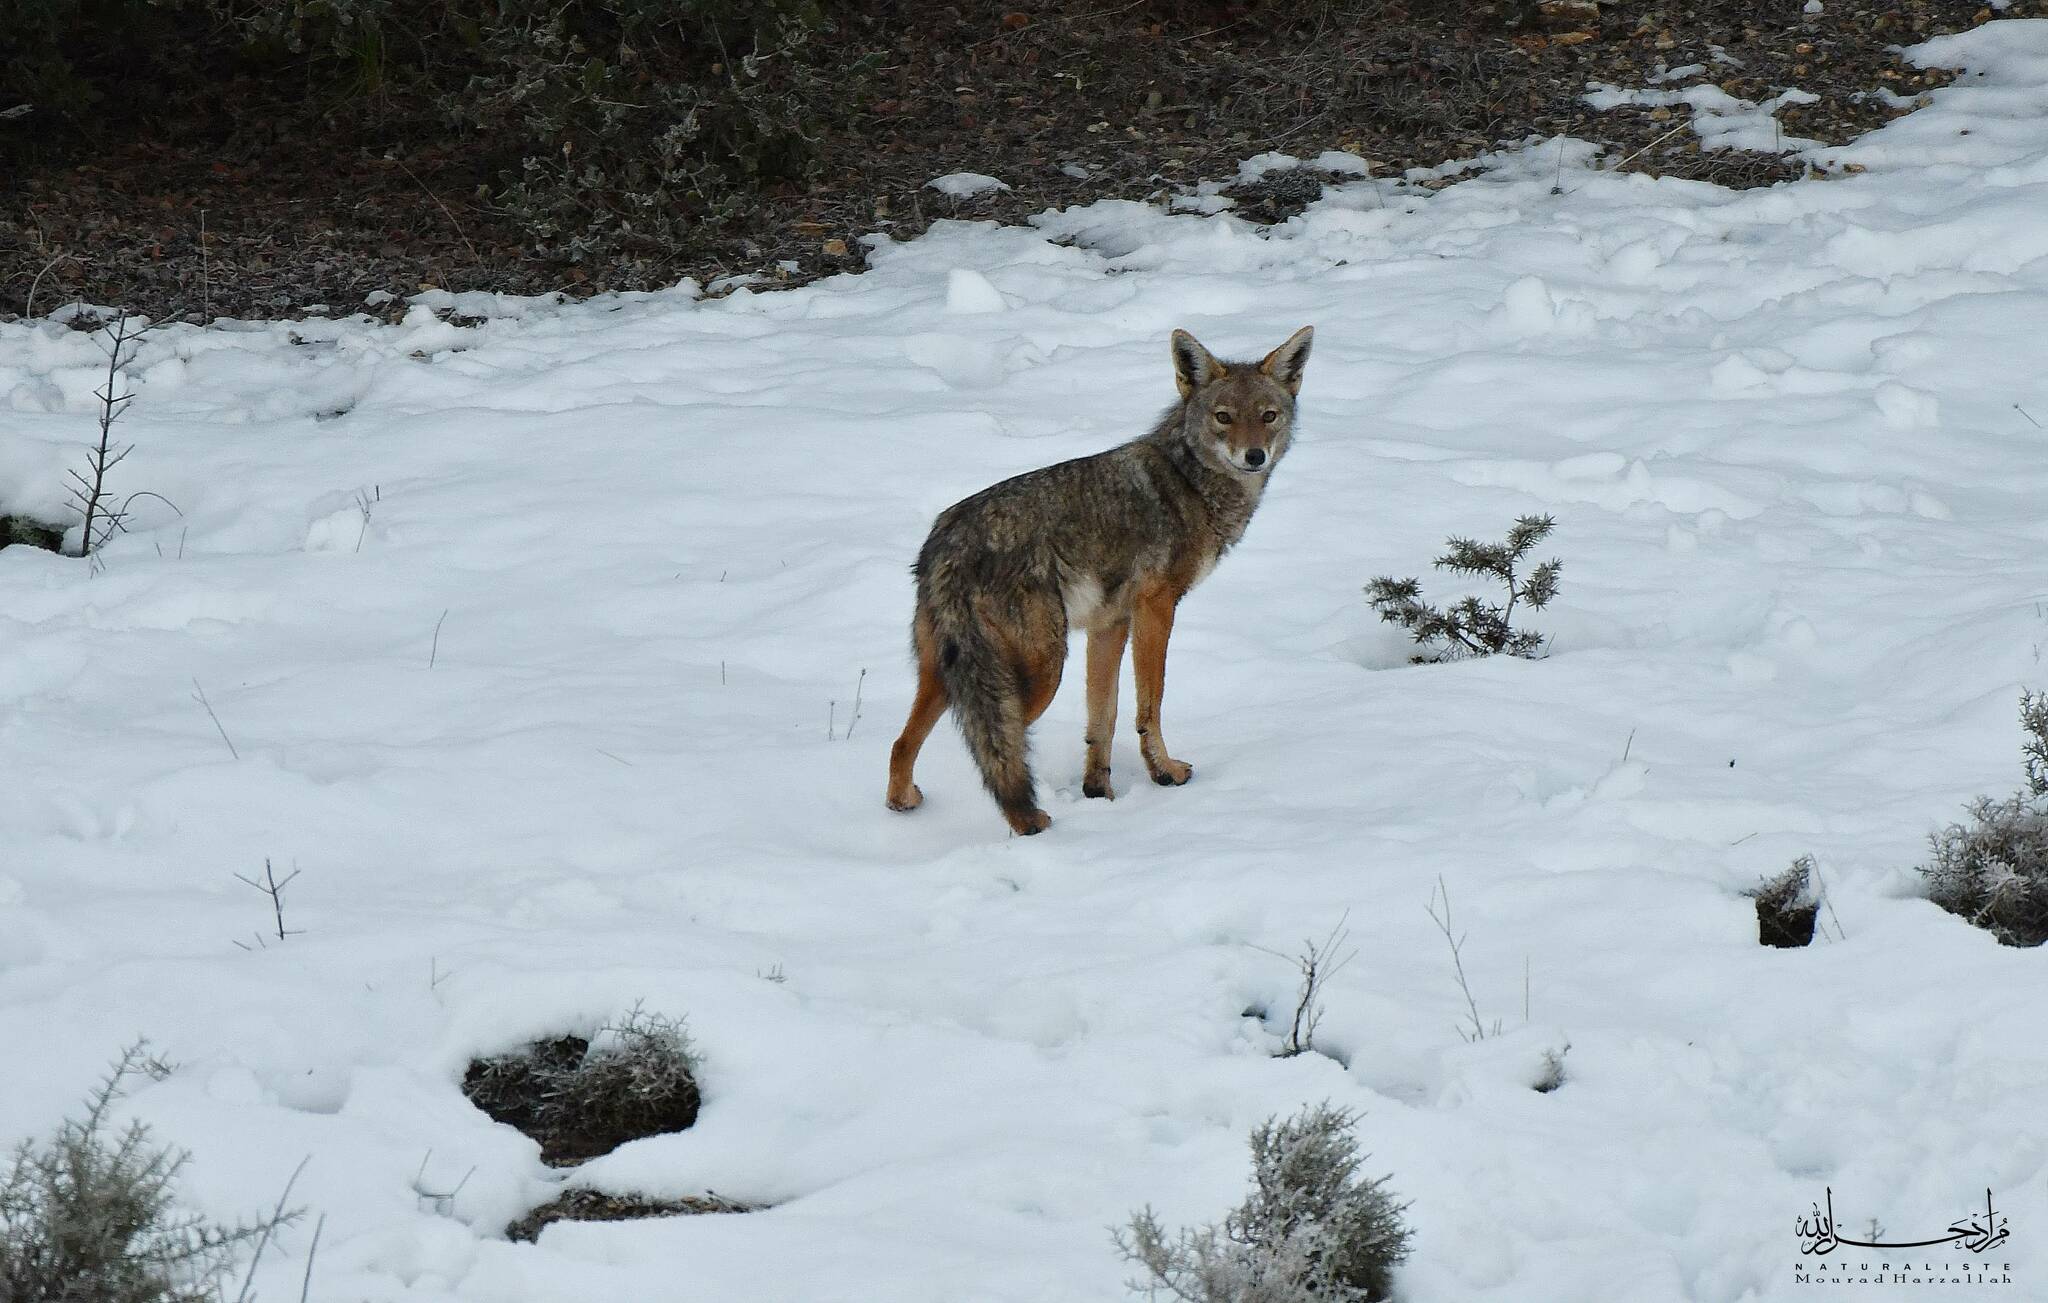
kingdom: Animalia
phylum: Chordata
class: Mammalia
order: Carnivora
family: Canidae
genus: Canis
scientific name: Canis lupaster
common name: African golden wolf
